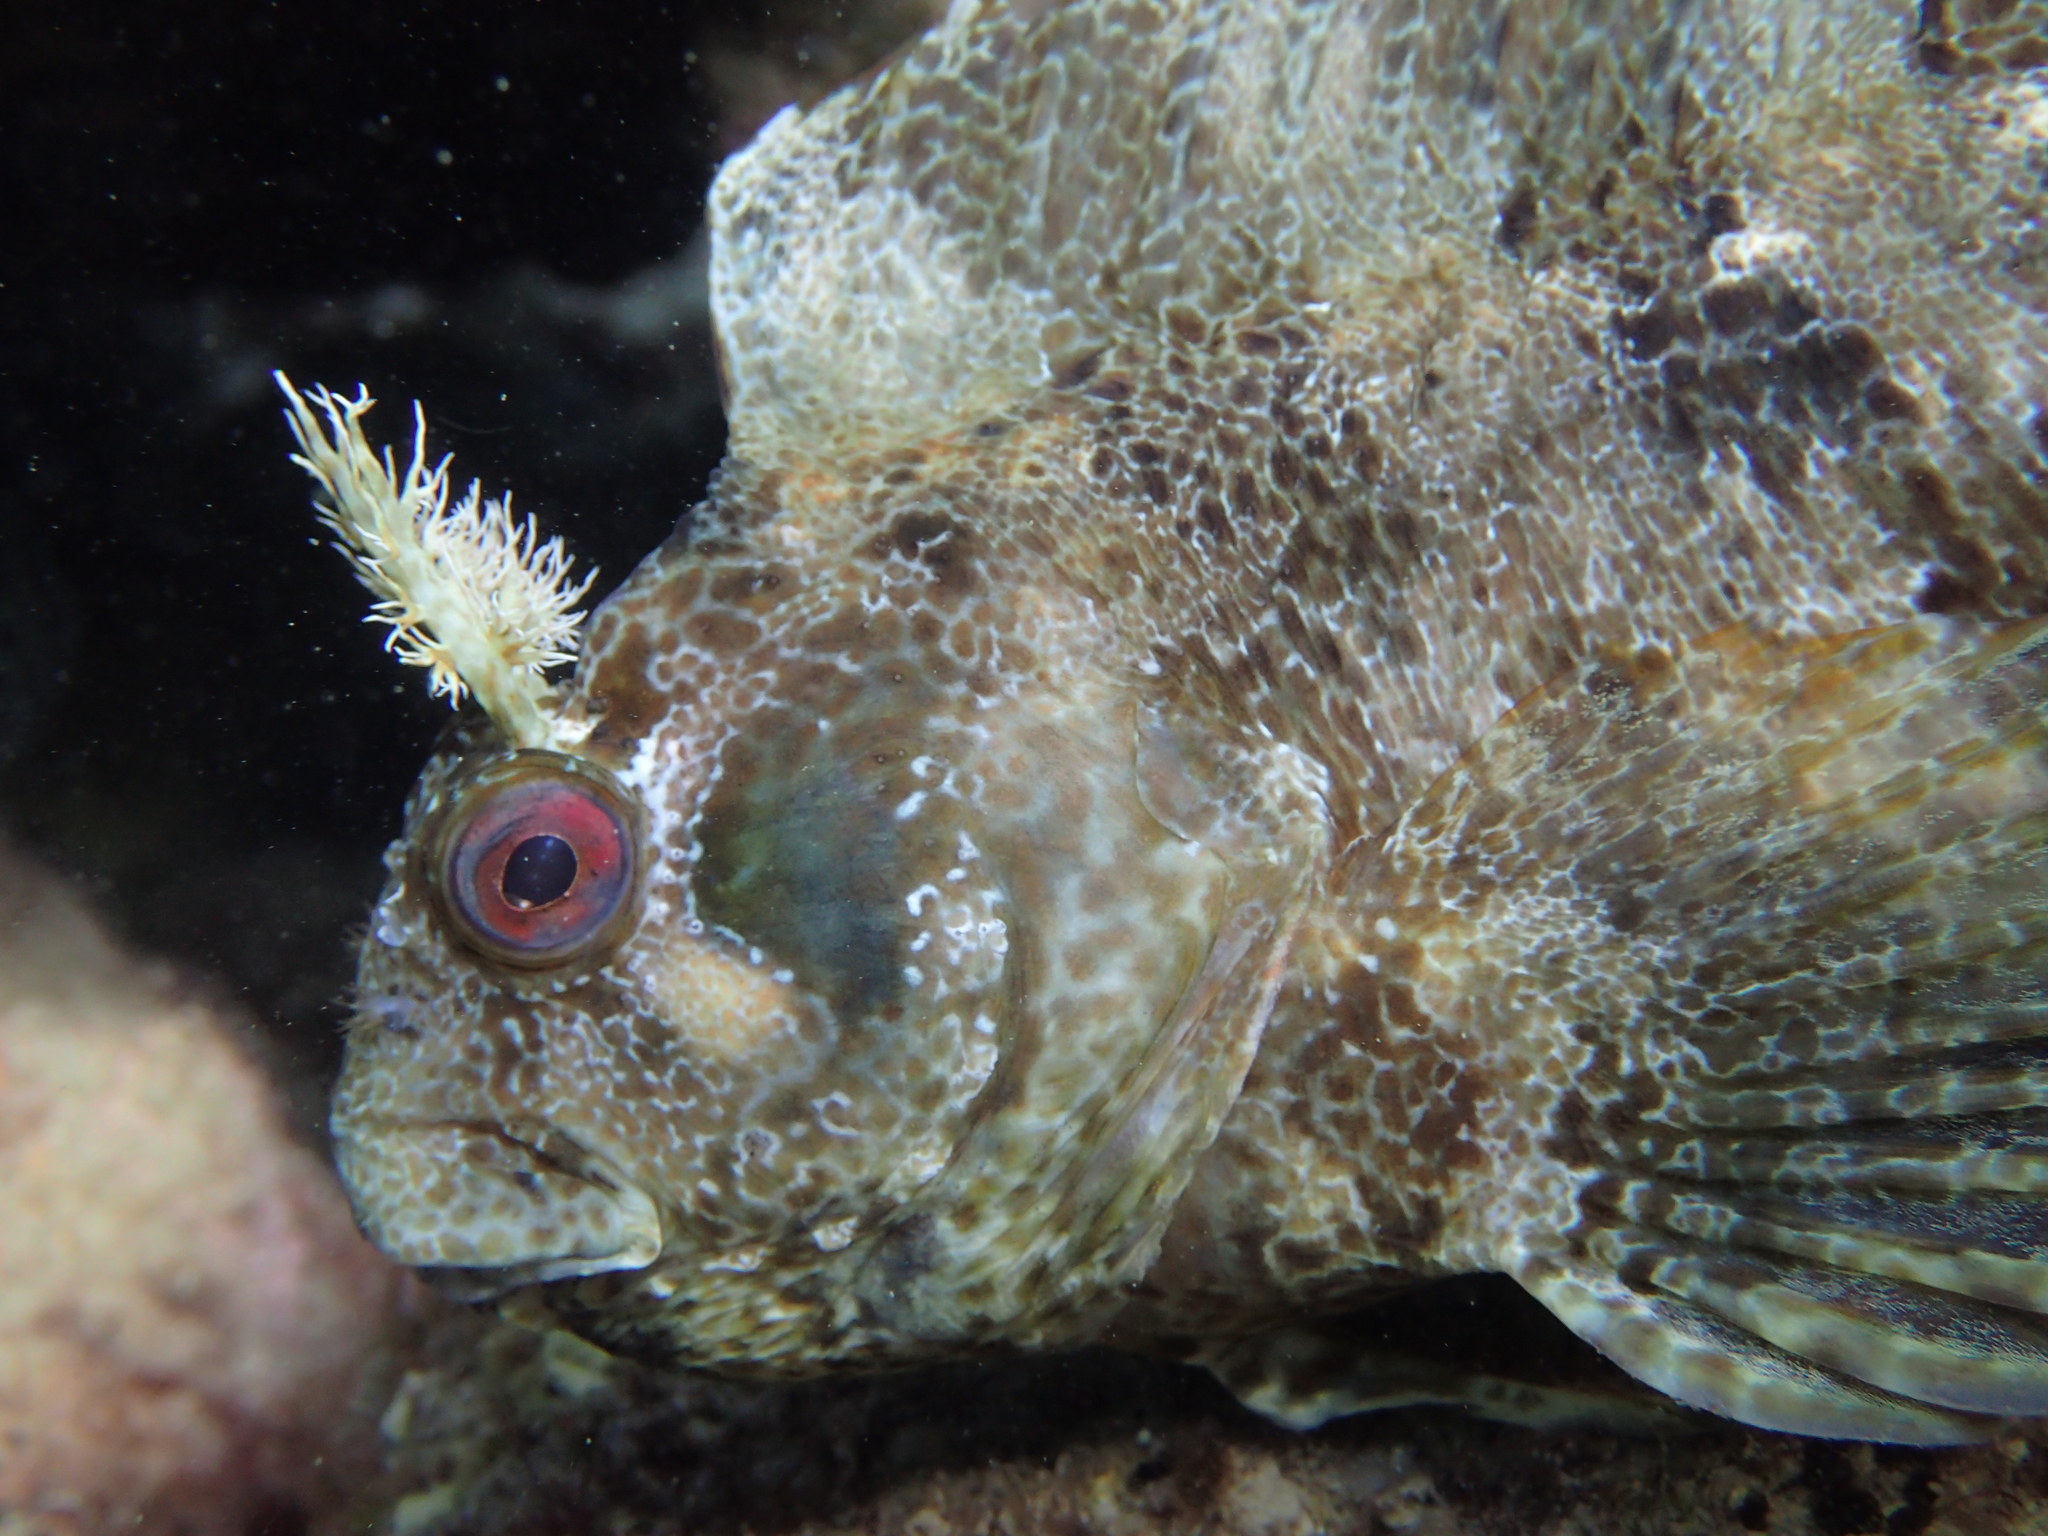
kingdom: Animalia
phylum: Chordata
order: Perciformes
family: Blenniidae
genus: Parablennius
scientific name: Parablennius gattorugine
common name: Tompot blenny
